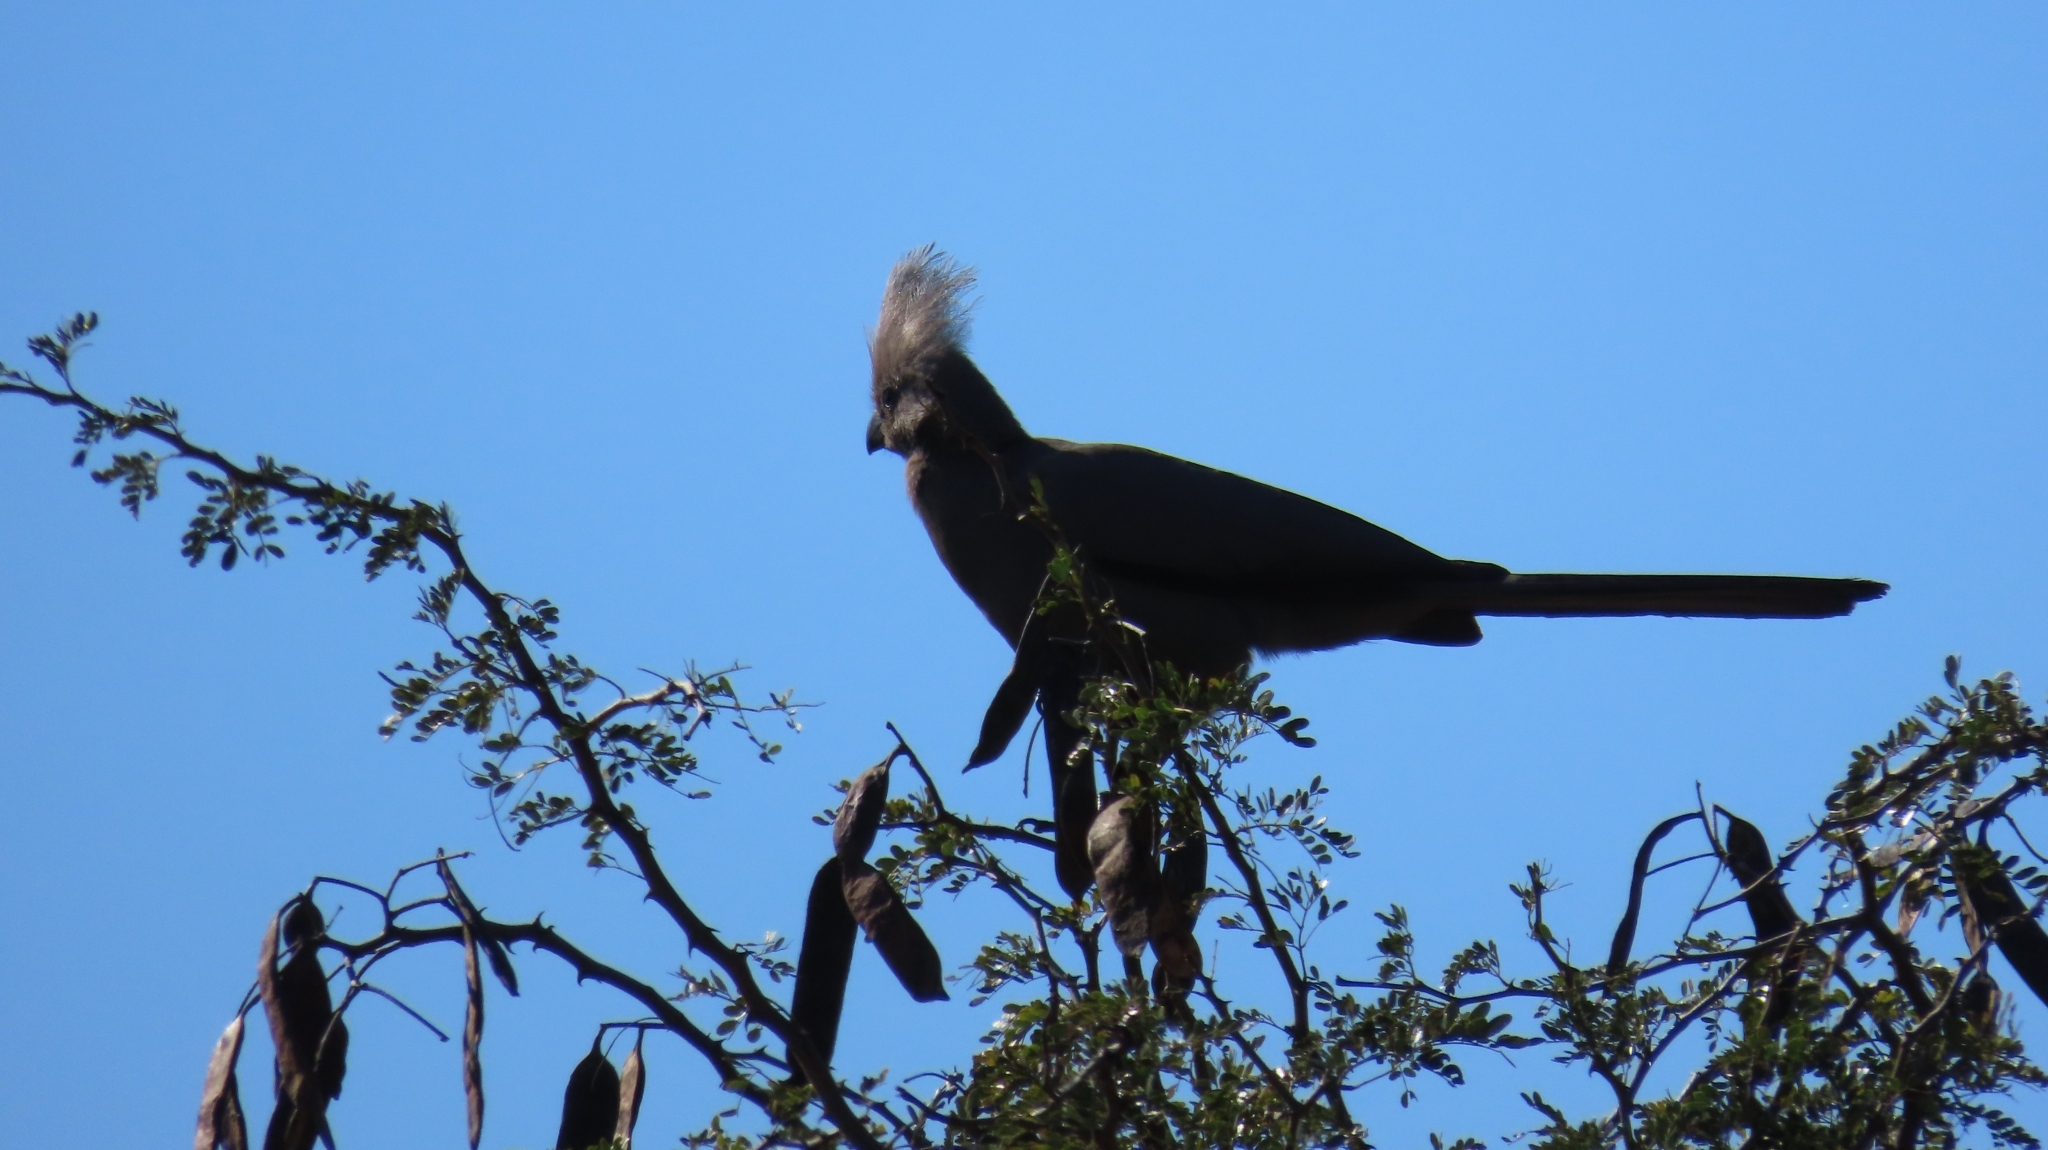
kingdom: Animalia
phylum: Chordata
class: Aves
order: Musophagiformes
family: Musophagidae
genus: Corythaixoides
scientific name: Corythaixoides concolor
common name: Grey go-away-bird
